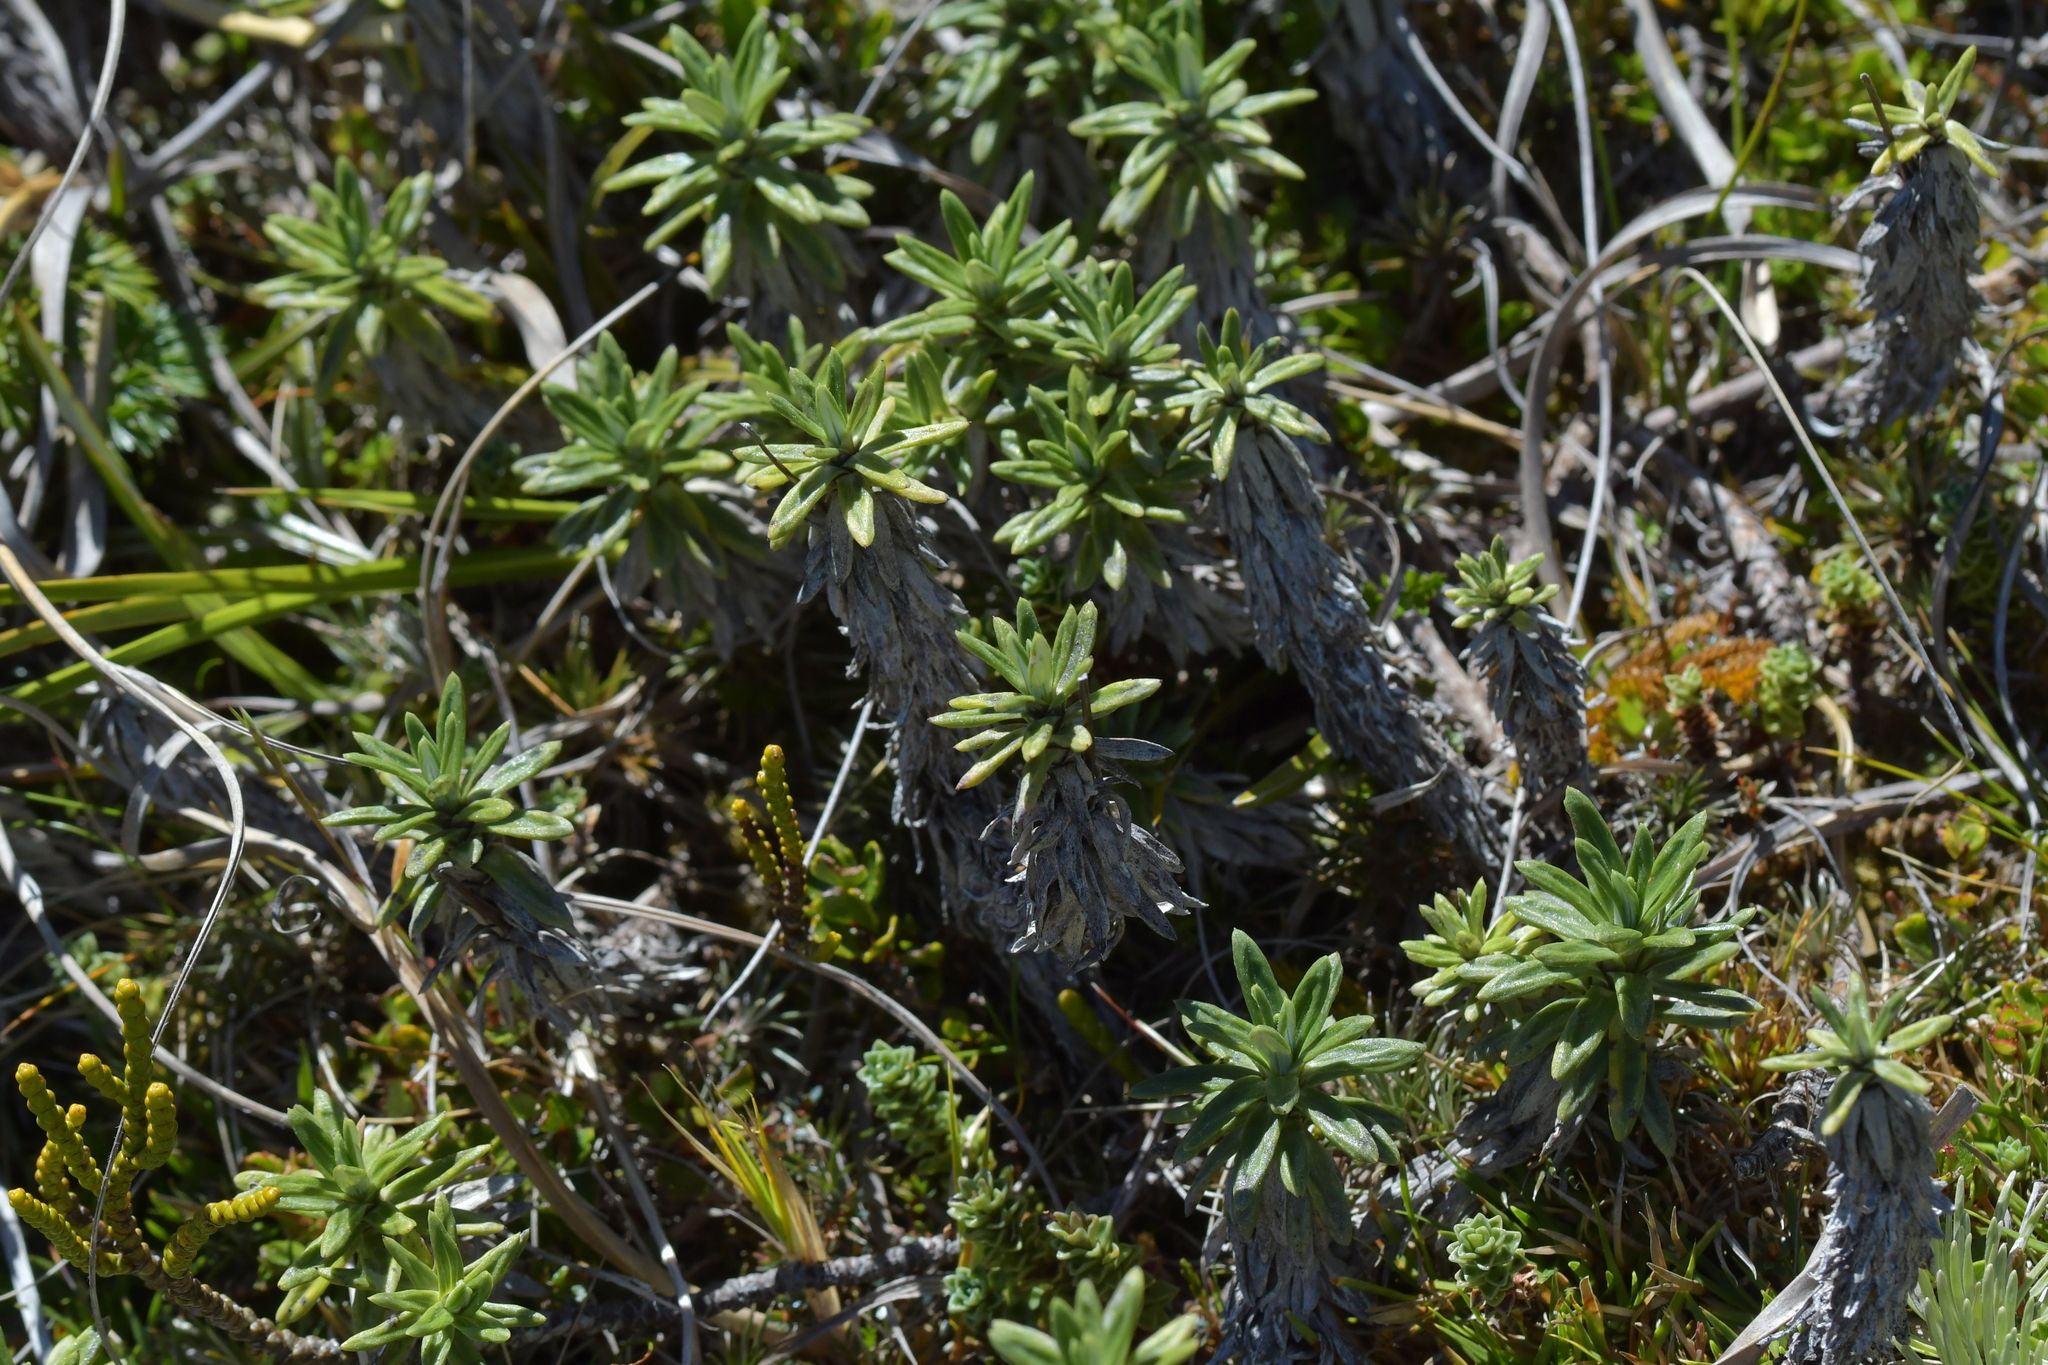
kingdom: Plantae
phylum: Tracheophyta
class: Magnoliopsida
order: Asterales
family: Asteraceae
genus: Celmisia
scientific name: Celmisia walkeri
